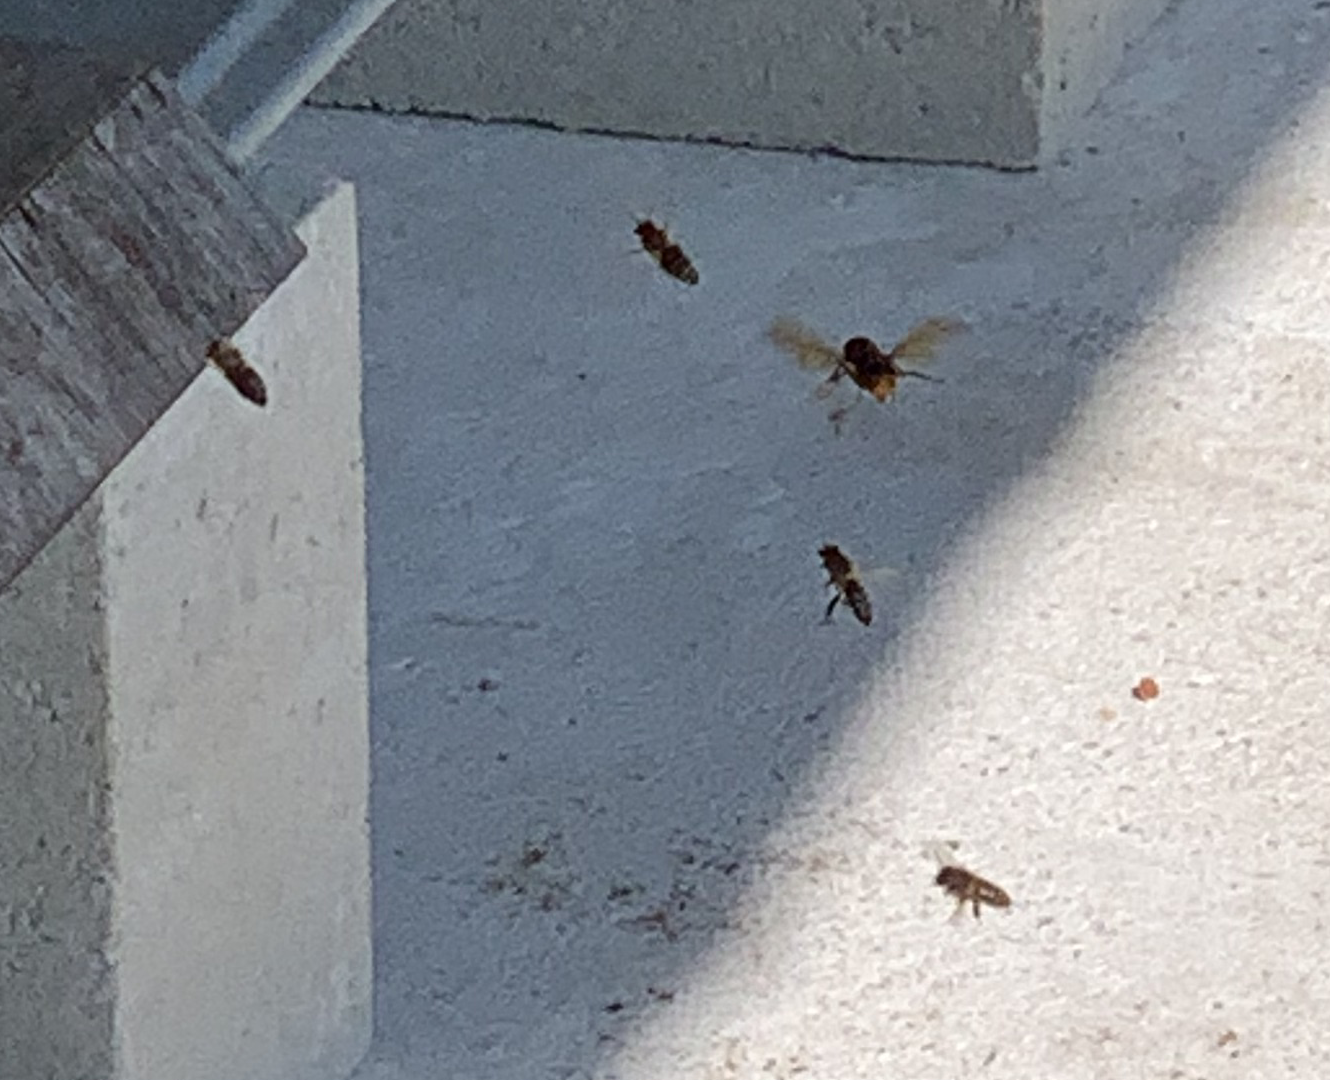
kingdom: Animalia
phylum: Arthropoda
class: Insecta
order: Hymenoptera
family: Vespidae
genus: Vespa
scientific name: Vespa velutina
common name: Asian hornet
